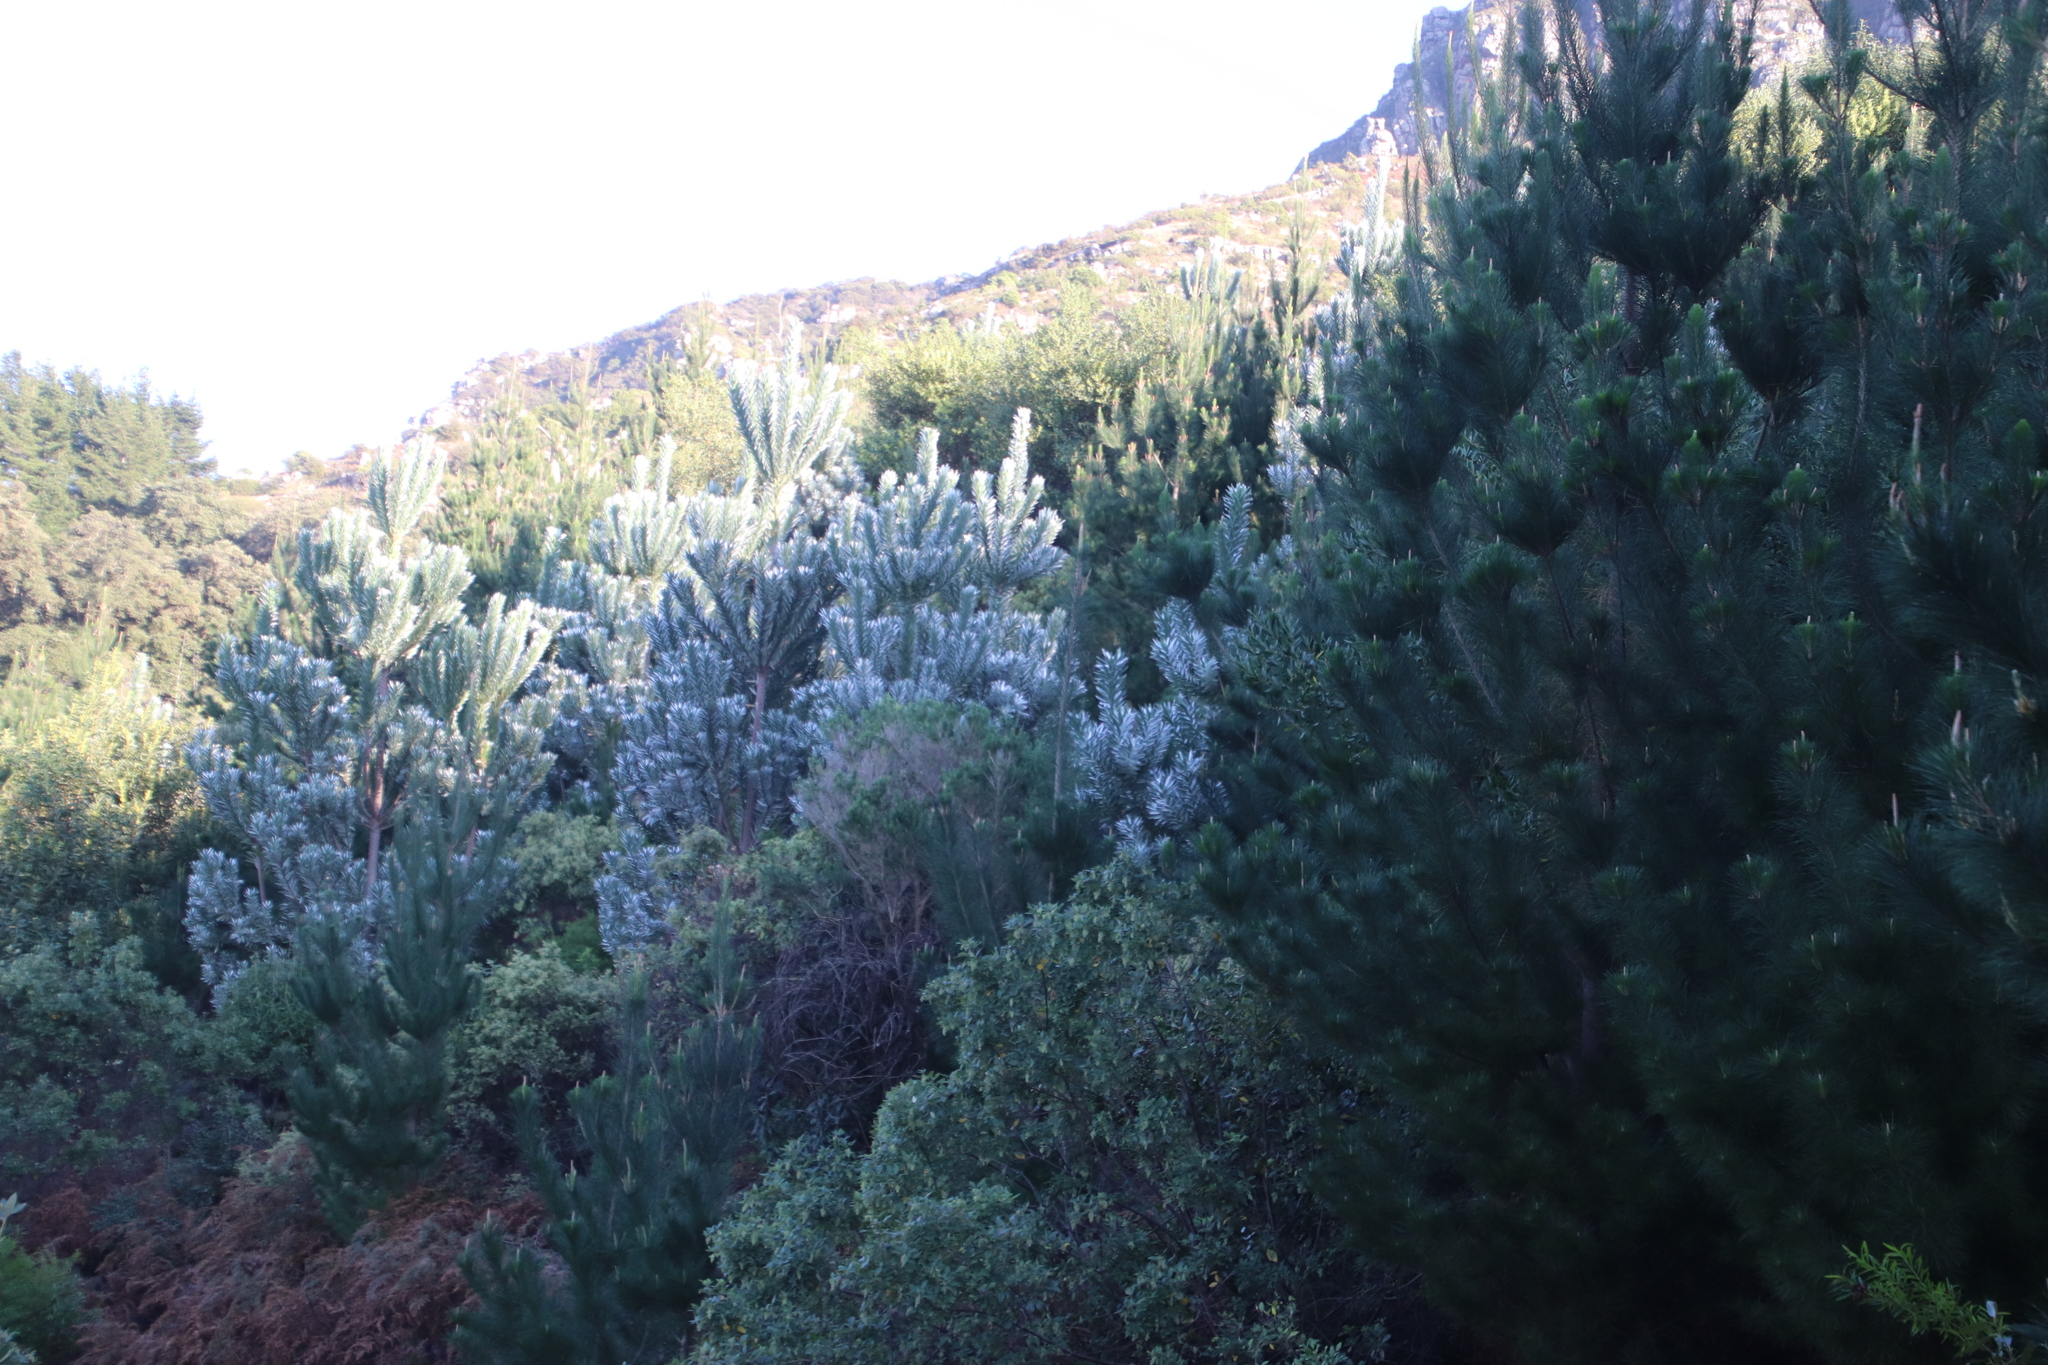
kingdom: Plantae
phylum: Tracheophyta
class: Magnoliopsida
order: Proteales
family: Proteaceae
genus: Leucadendron
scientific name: Leucadendron argenteum
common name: Cape silver tree
